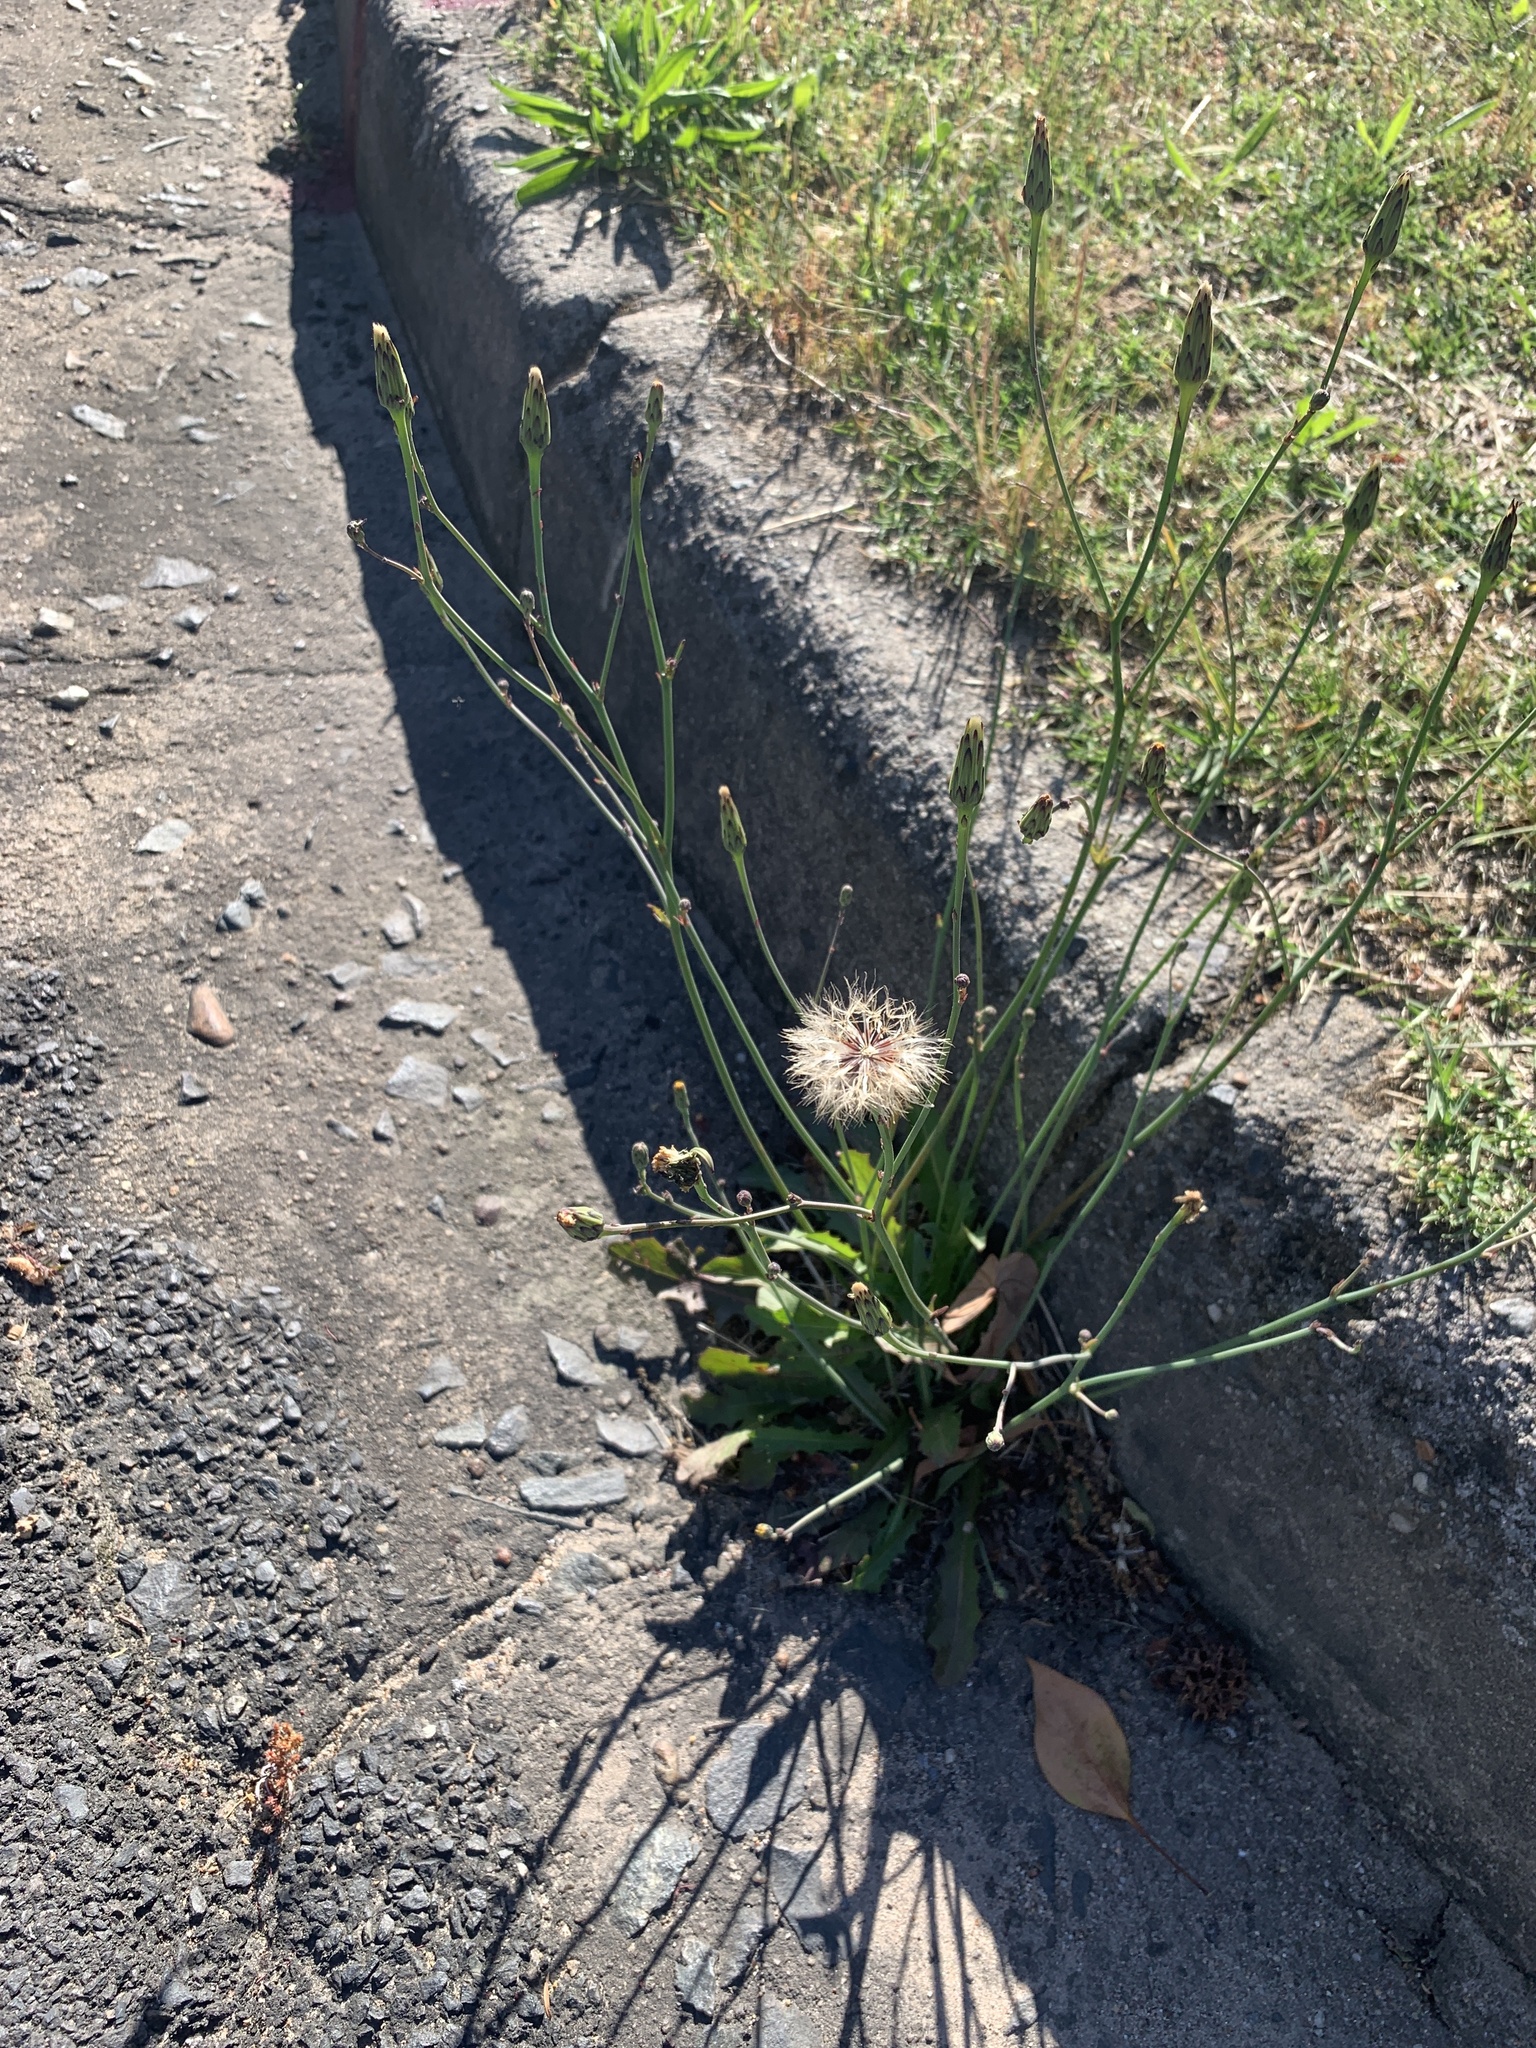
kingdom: Plantae
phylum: Tracheophyta
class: Magnoliopsida
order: Asterales
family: Asteraceae
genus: Hypochaeris
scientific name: Hypochaeris radicata
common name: Flatweed
